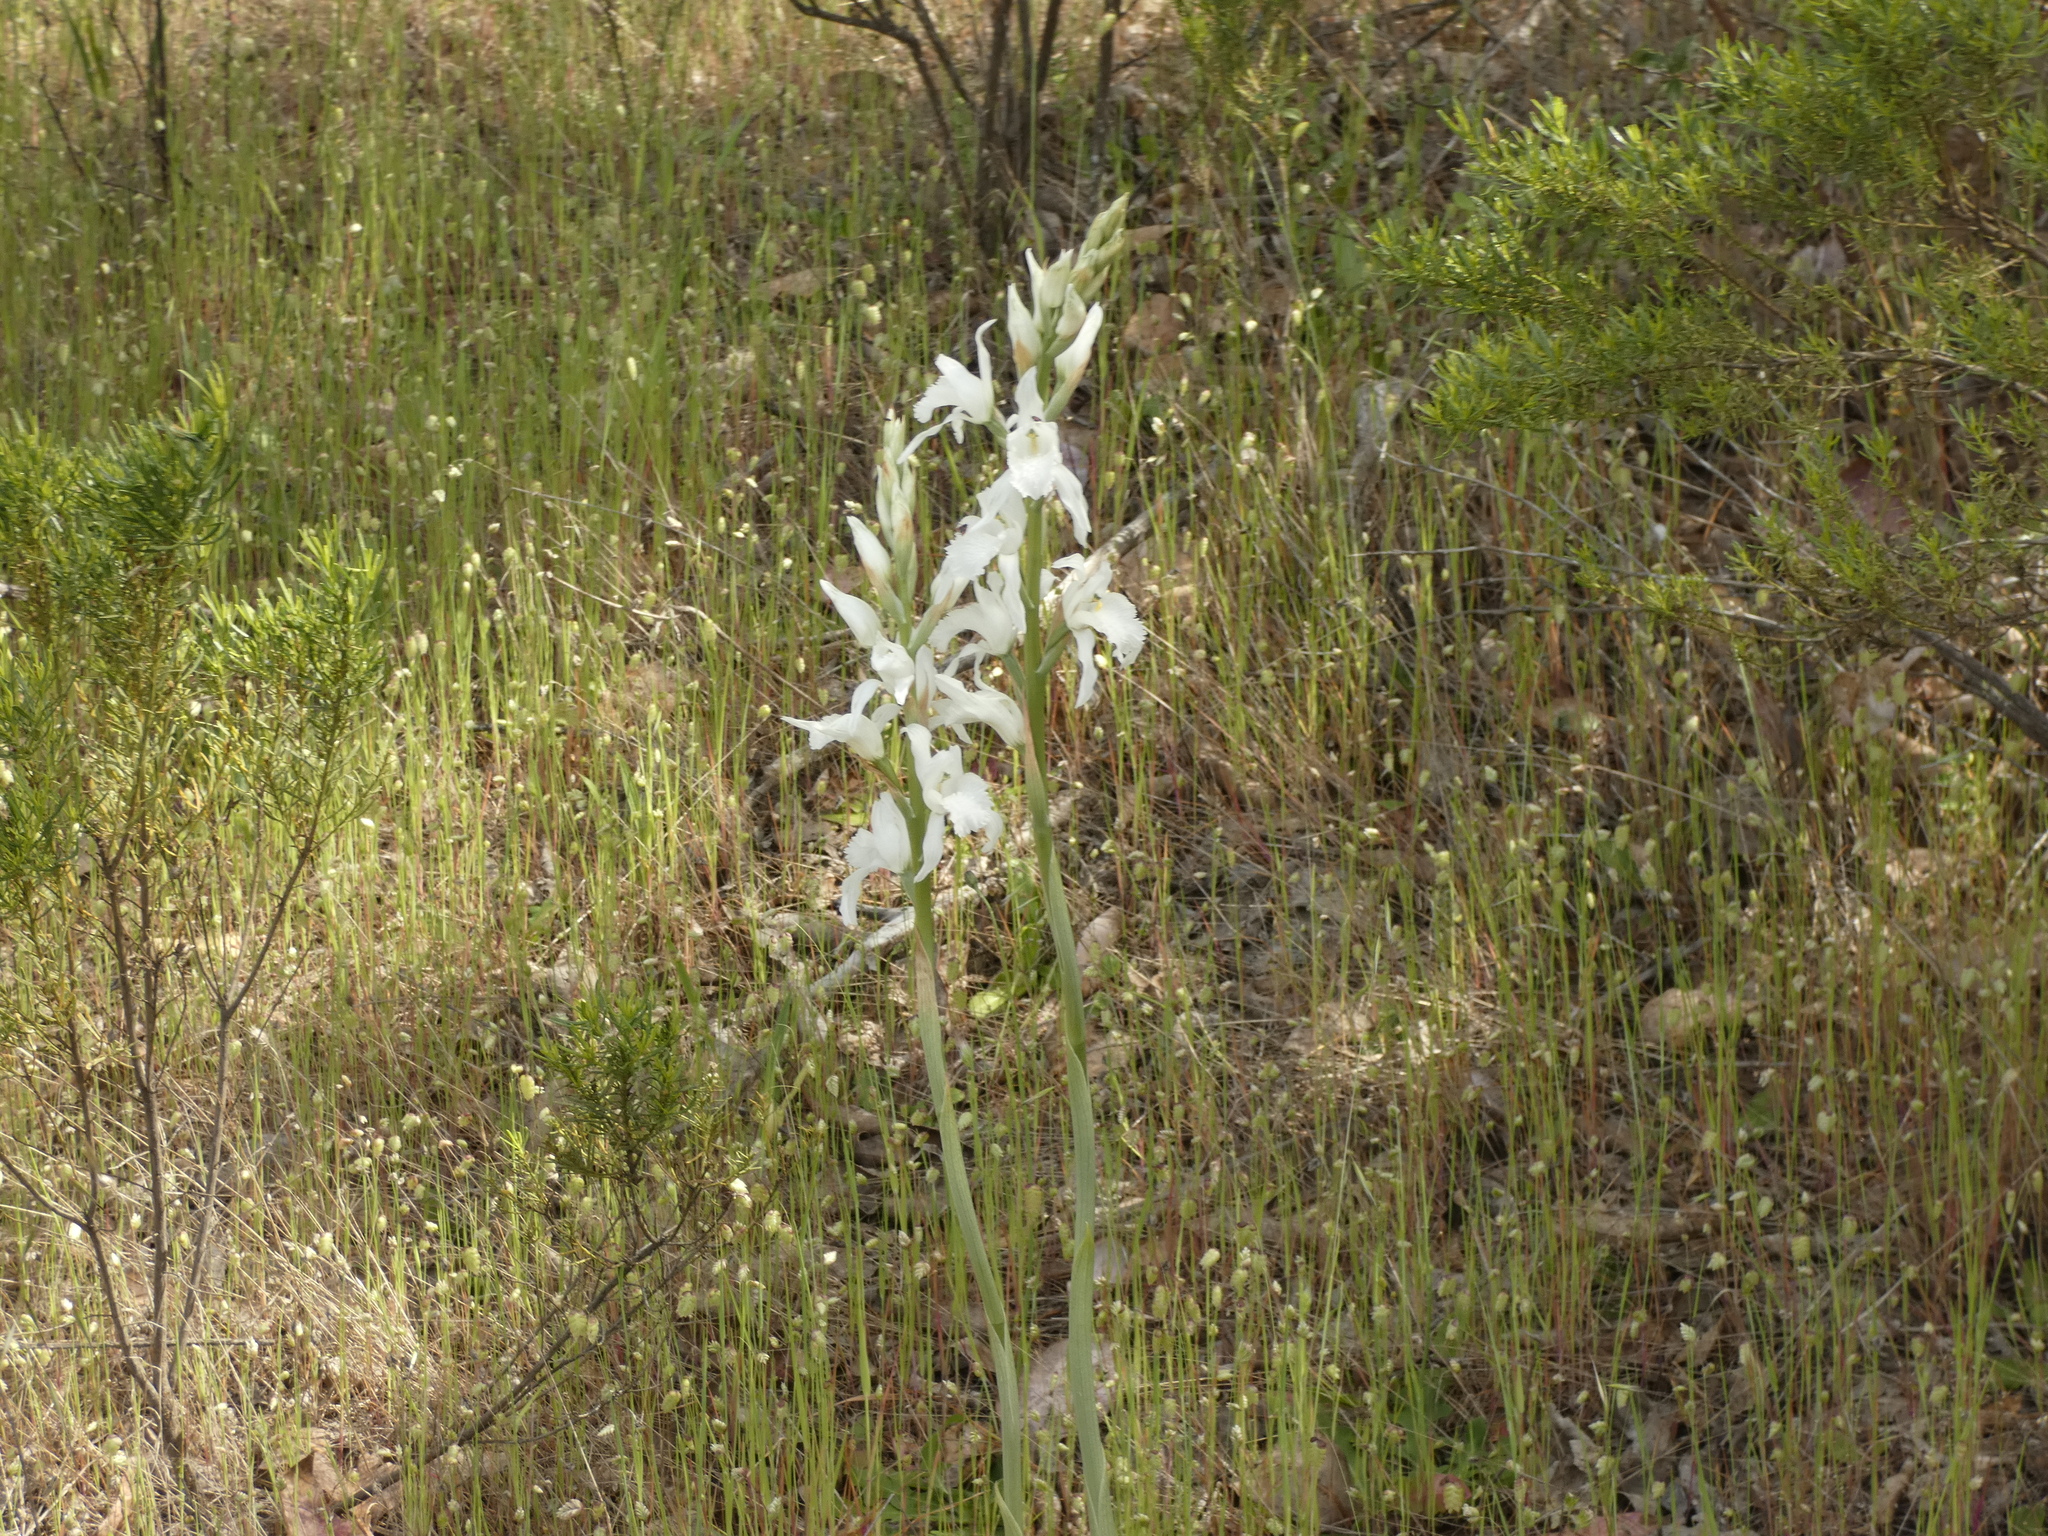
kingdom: Plantae
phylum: Tracheophyta
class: Liliopsida
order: Asparagales
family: Orchidaceae
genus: Chloraea
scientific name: Chloraea crispa
